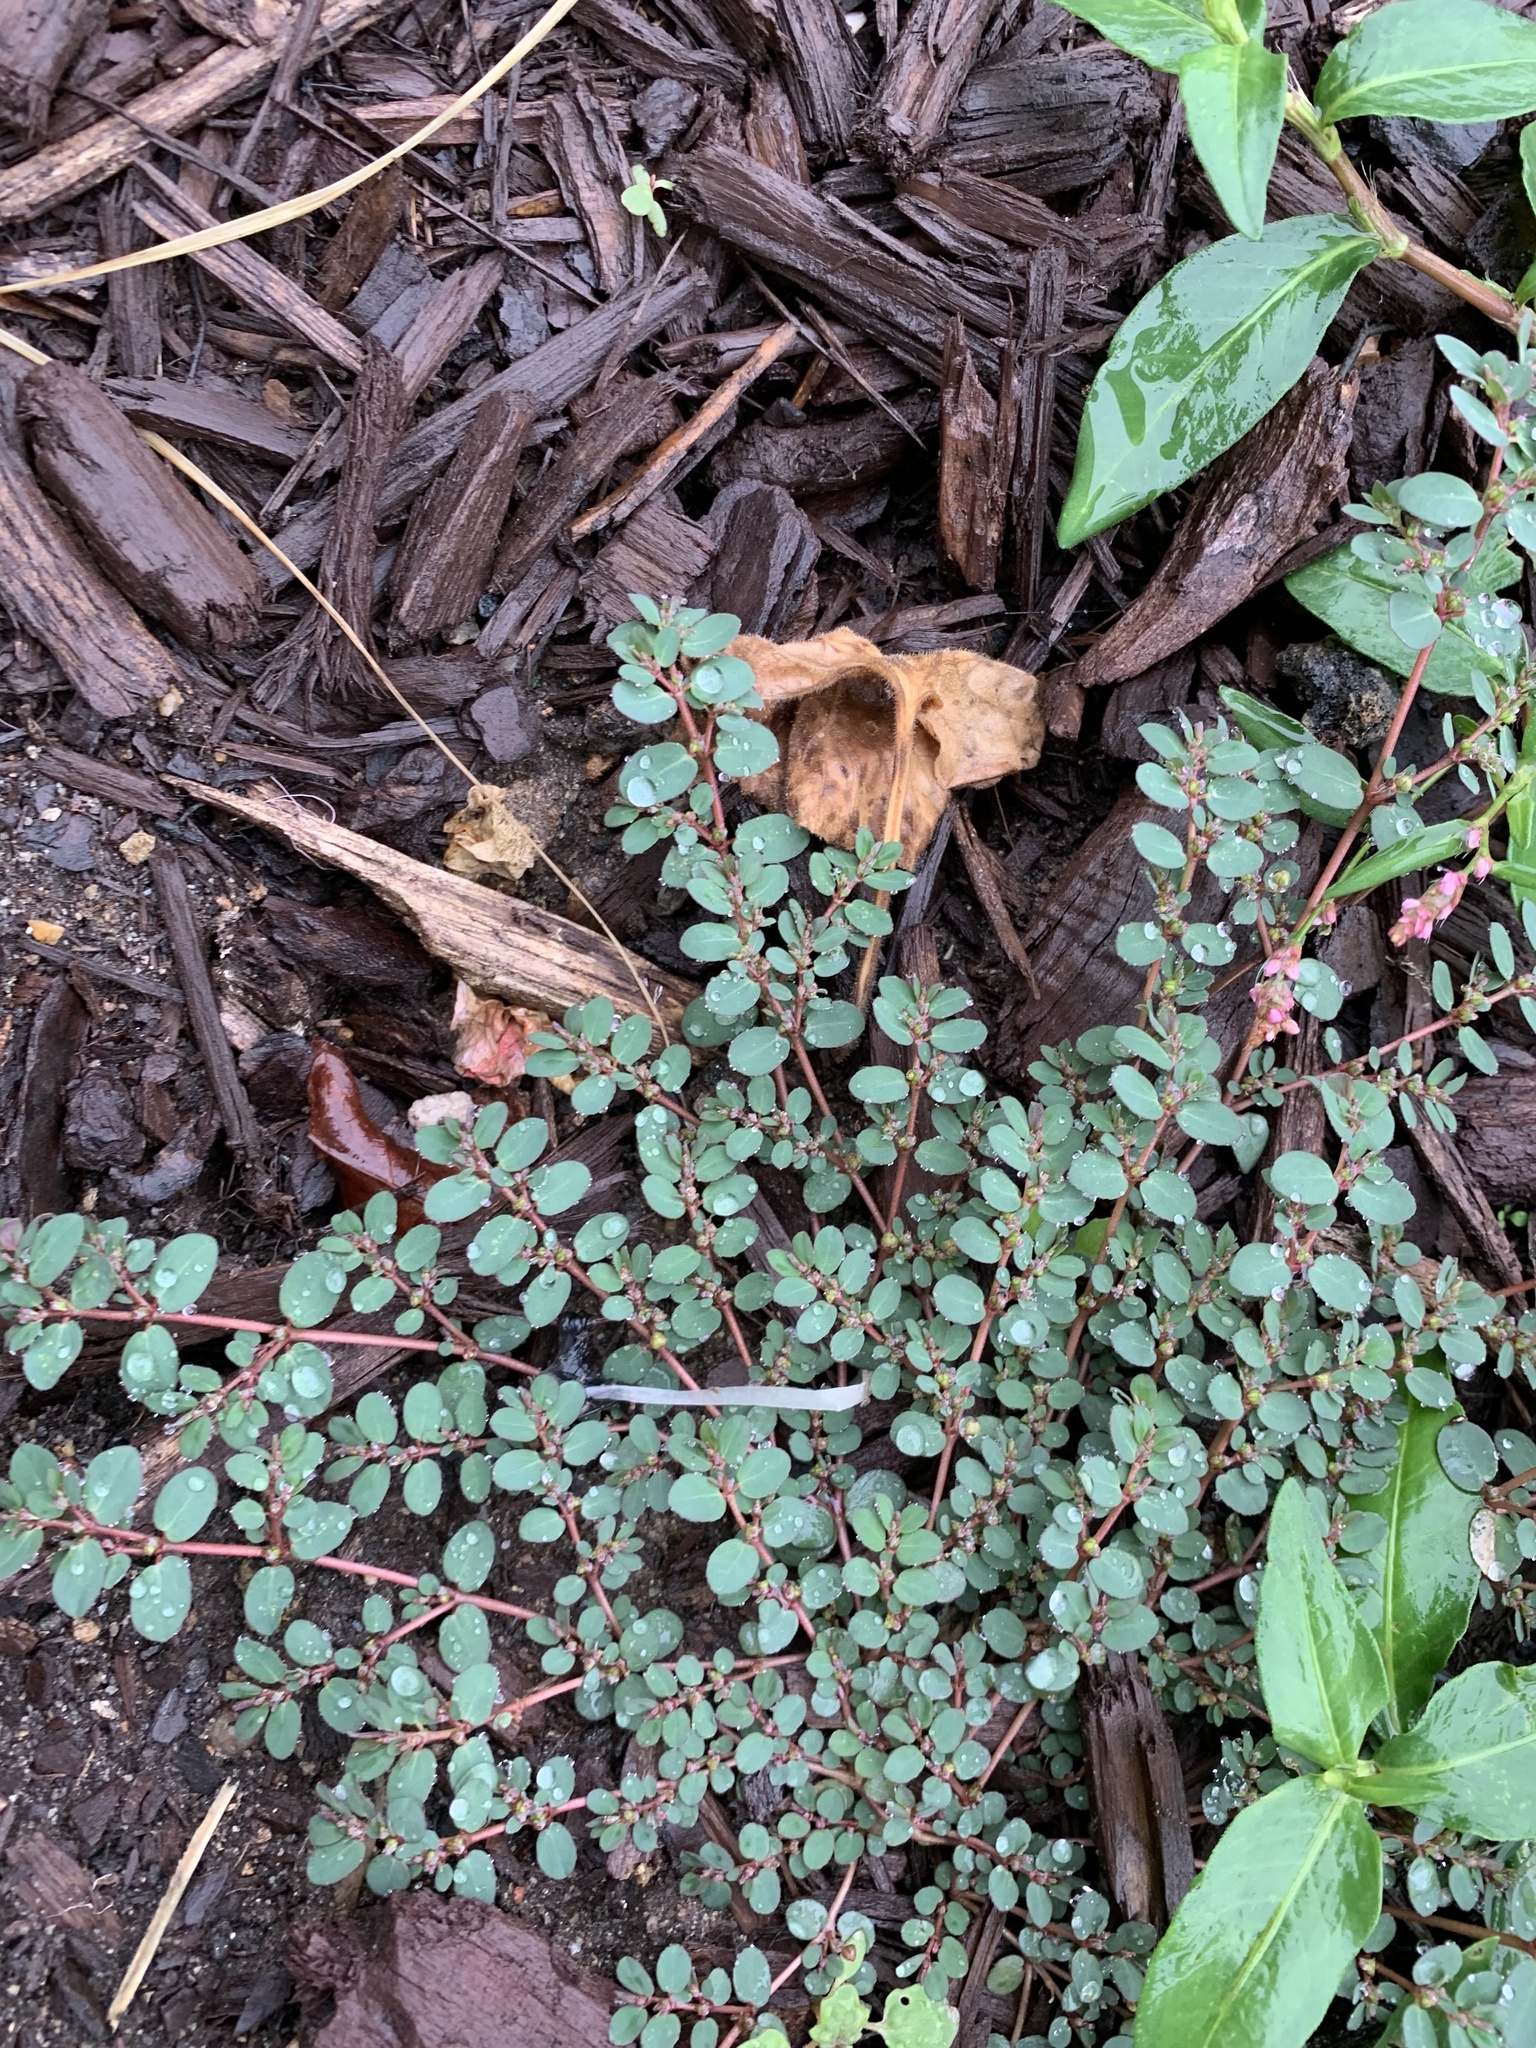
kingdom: Plantae
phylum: Tracheophyta
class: Magnoliopsida
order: Malpighiales
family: Euphorbiaceae
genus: Euphorbia
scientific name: Euphorbia prostrata
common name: Prostrate sandmat
